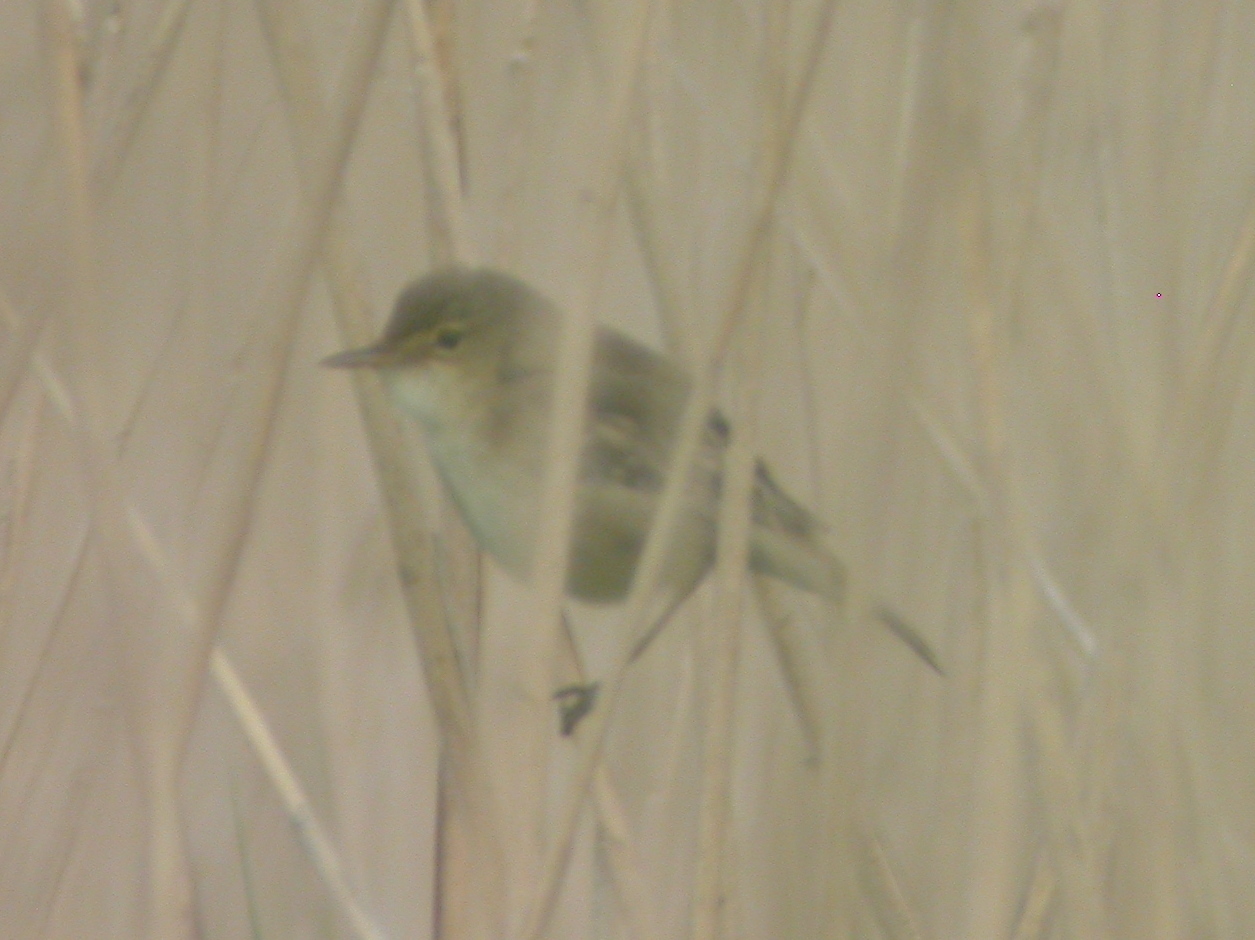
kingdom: Animalia
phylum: Chordata
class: Aves
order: Passeriformes
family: Acrocephalidae
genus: Acrocephalus
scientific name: Acrocephalus scirpaceus
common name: Eurasian reed warbler
